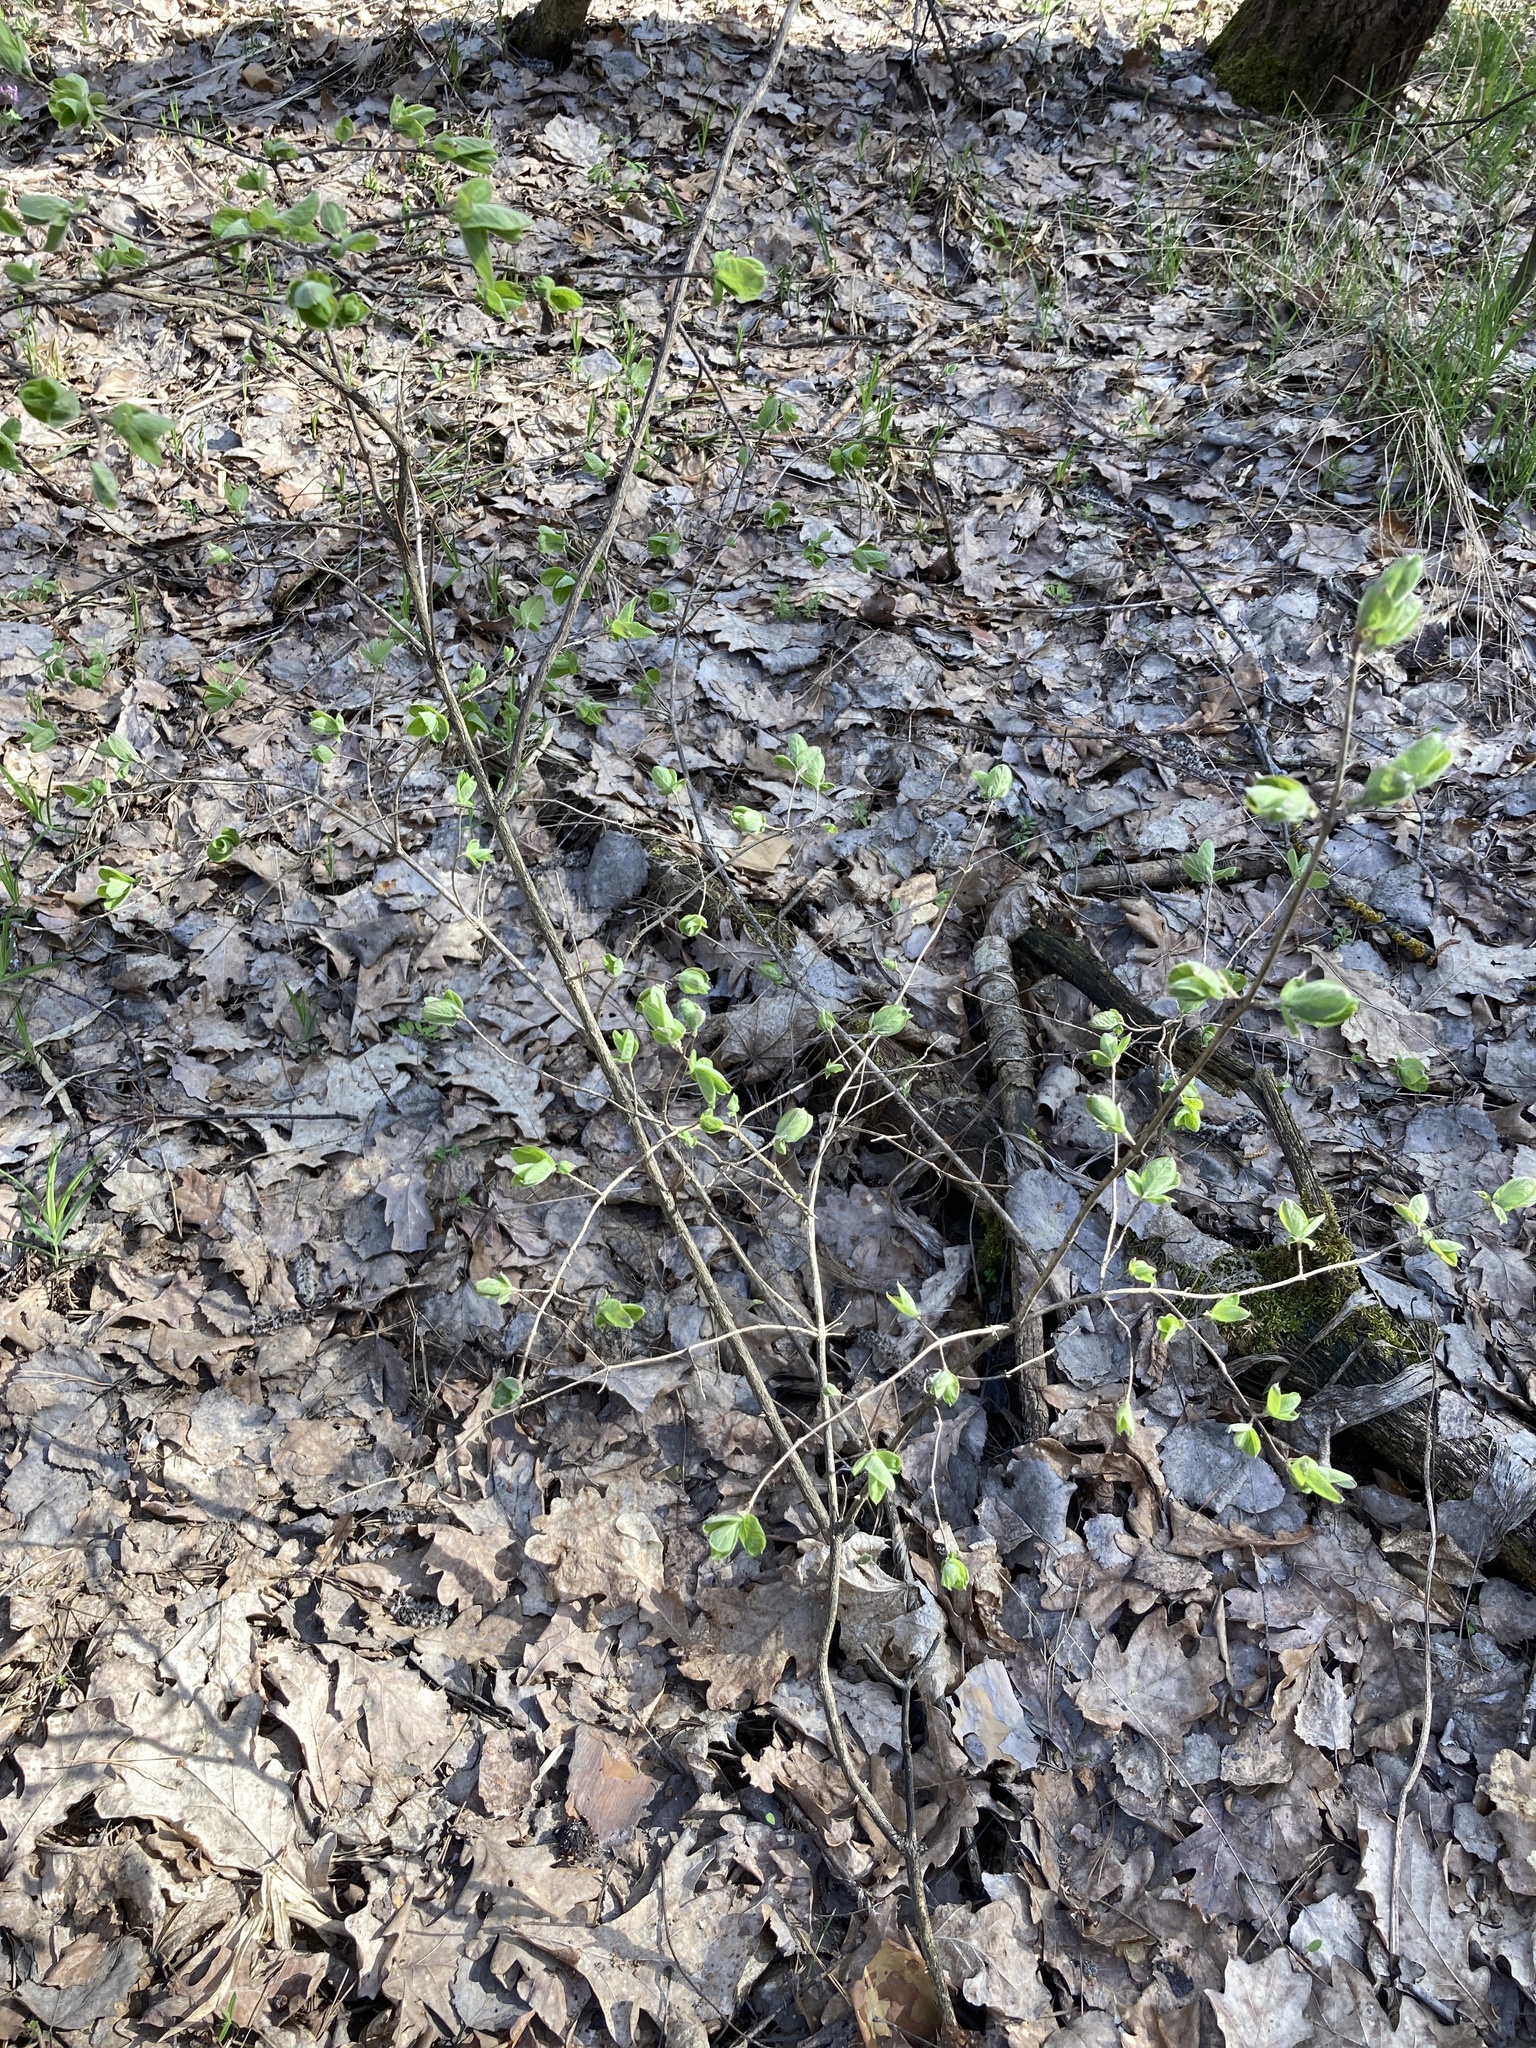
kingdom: Plantae
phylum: Tracheophyta
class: Magnoliopsida
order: Dipsacales
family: Caprifoliaceae
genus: Lonicera
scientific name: Lonicera xylosteum
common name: Fly honeysuckle
